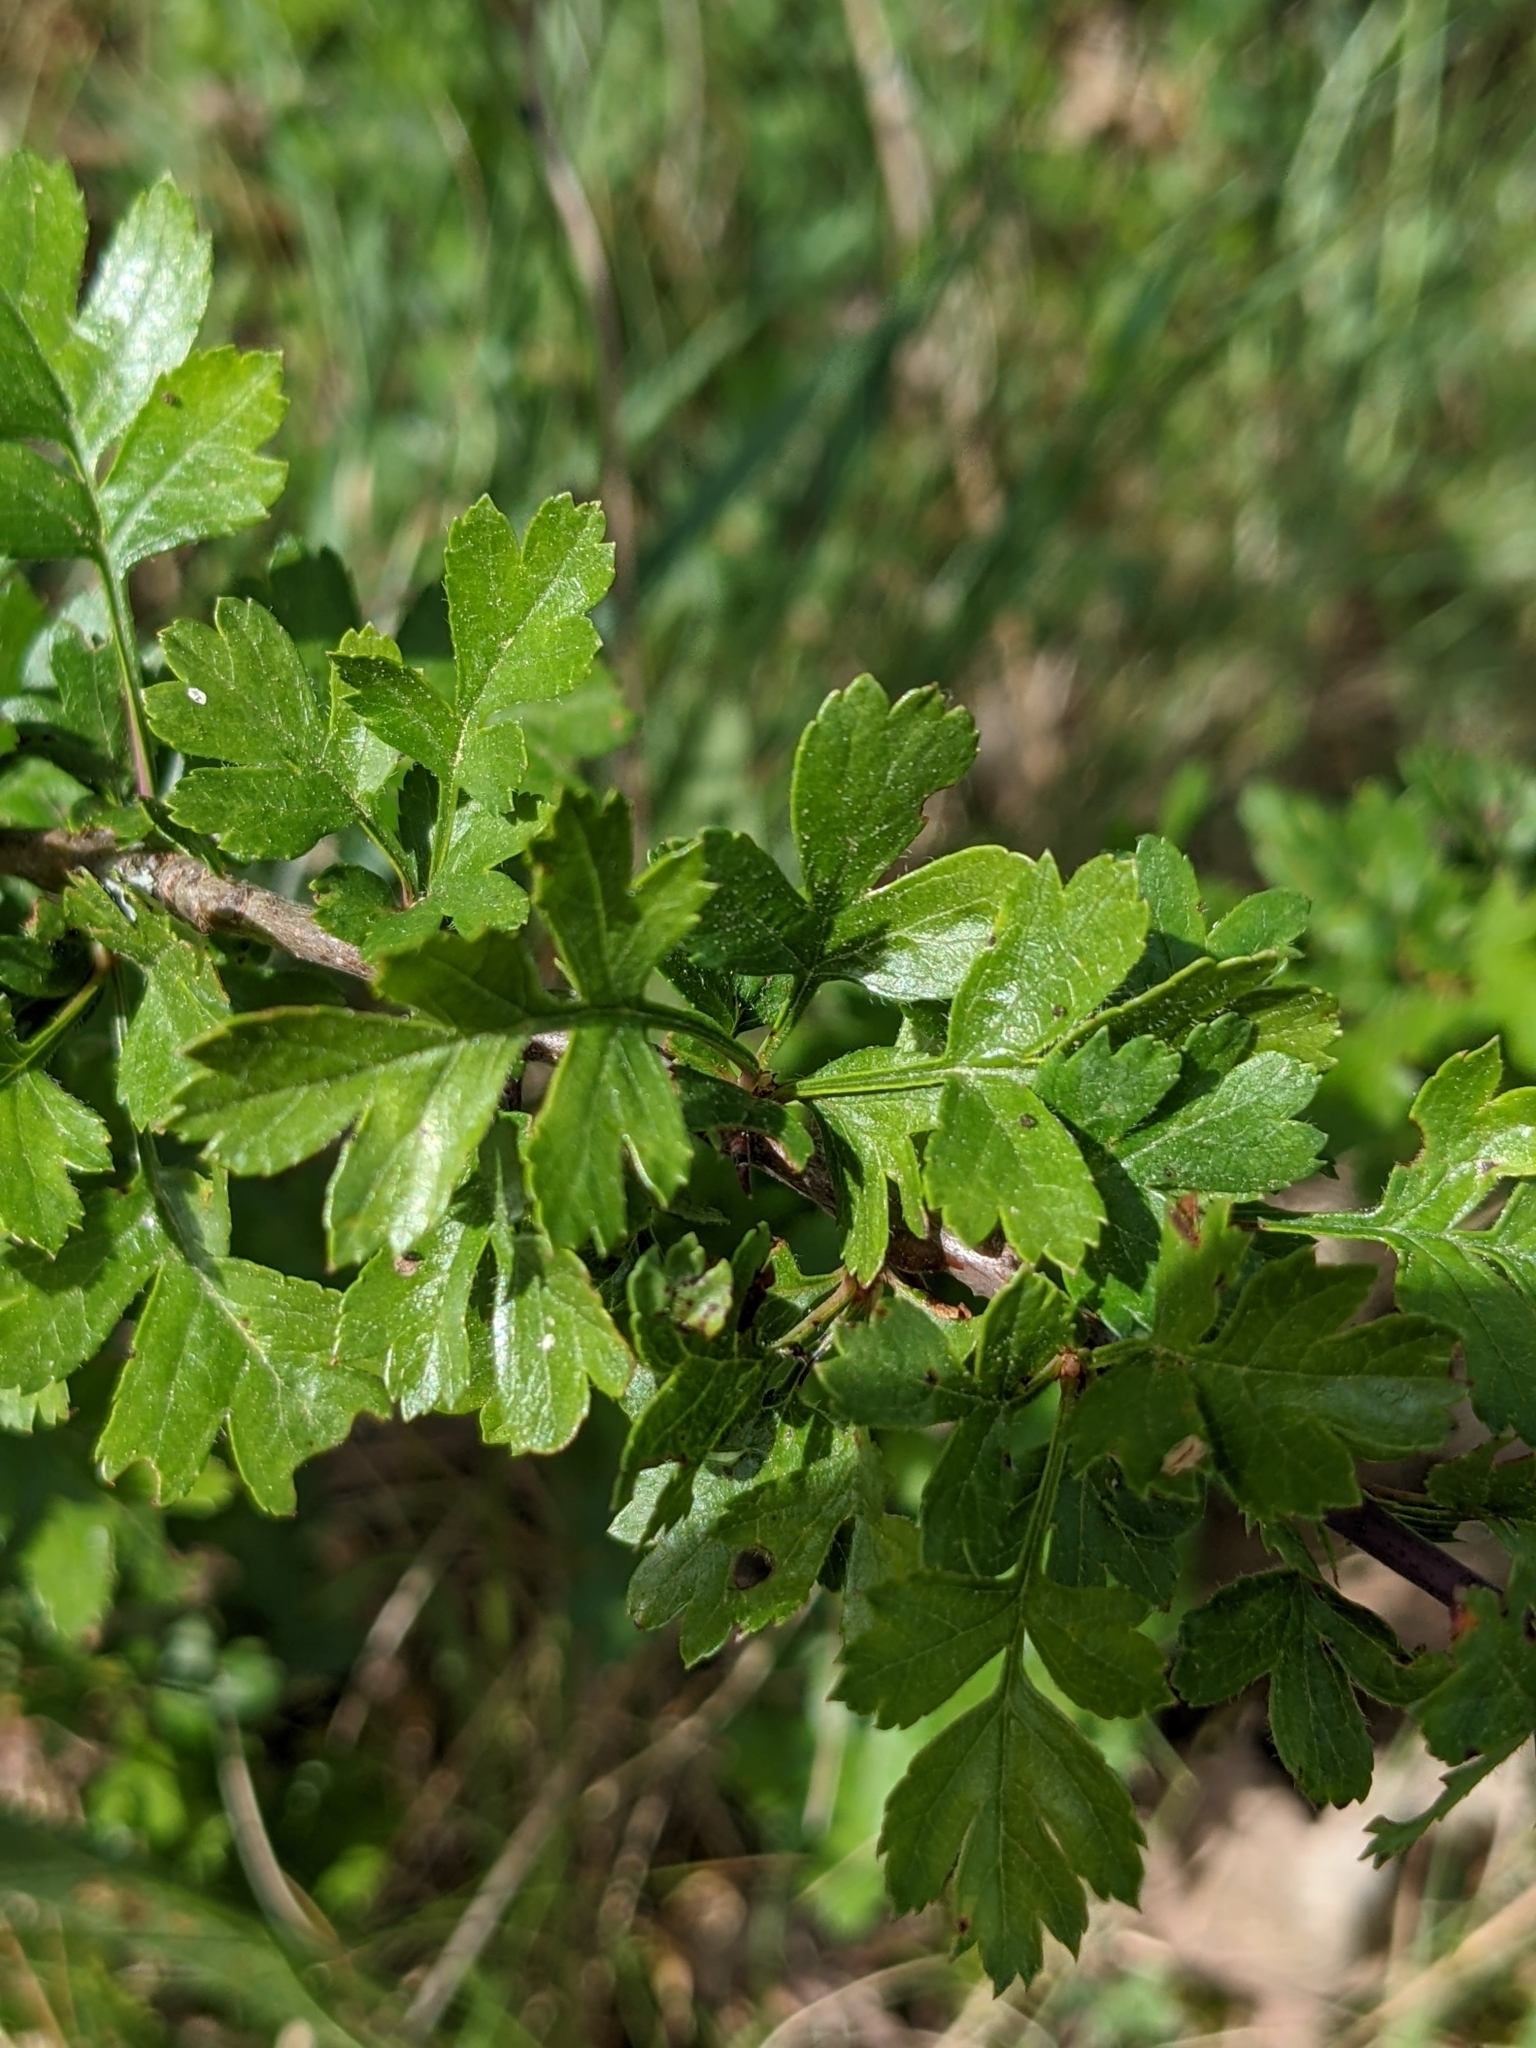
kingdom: Plantae
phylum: Tracheophyta
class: Magnoliopsida
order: Rosales
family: Rosaceae
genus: Crataegus
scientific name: Crataegus monogyna
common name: Hawthorn
